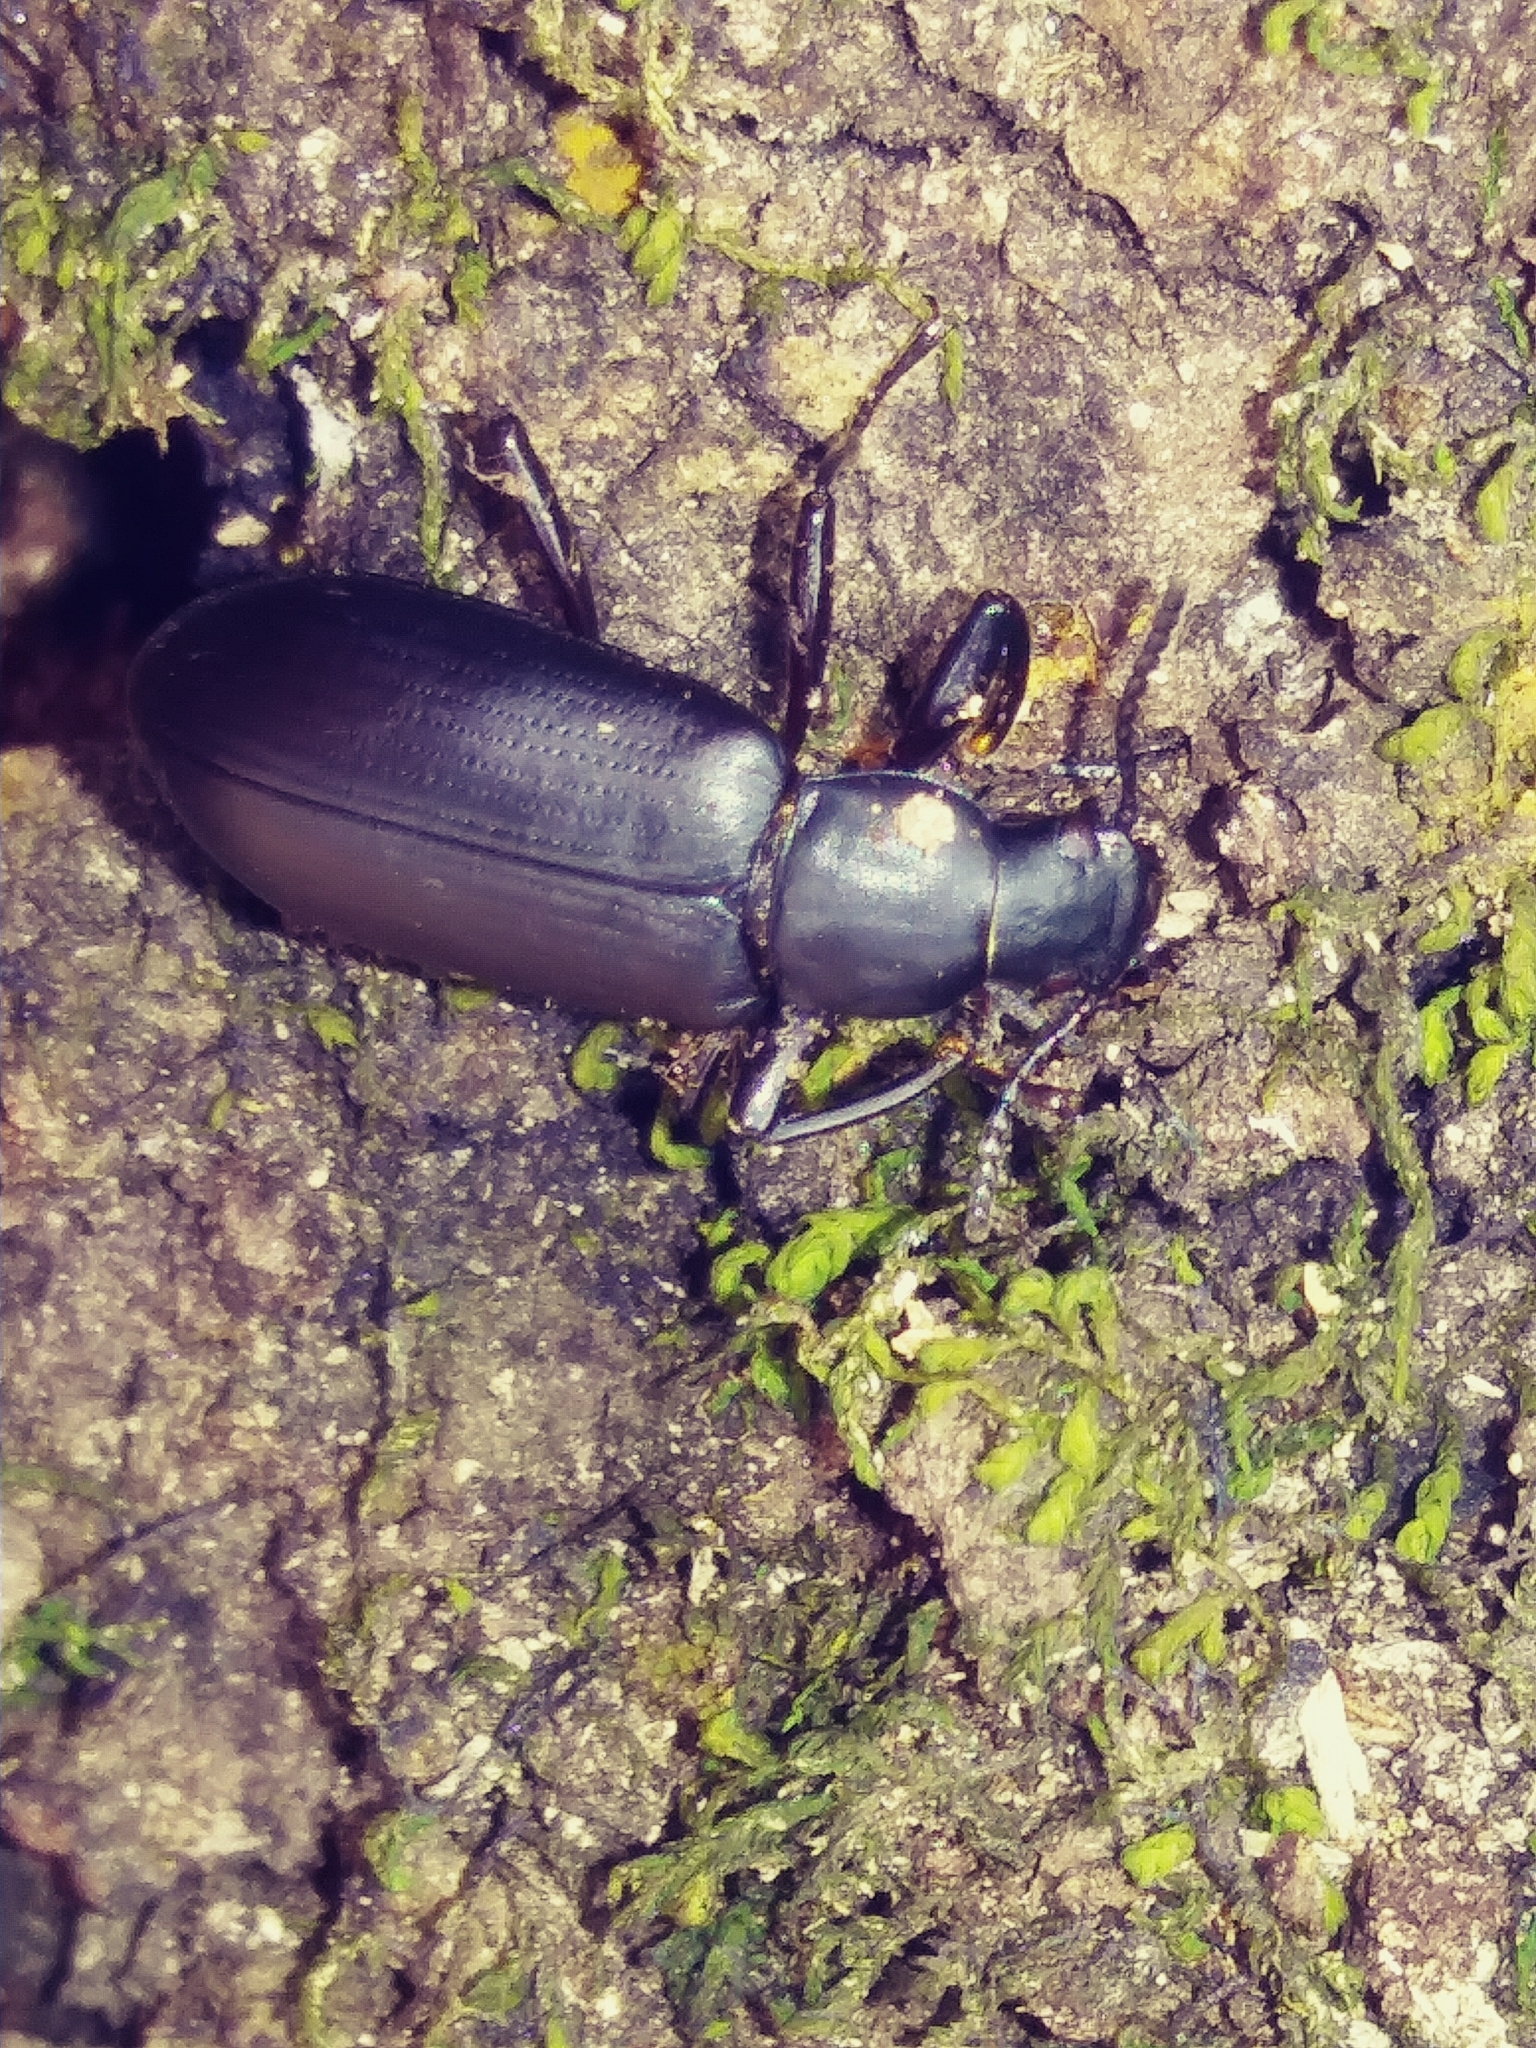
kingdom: Animalia
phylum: Arthropoda
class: Insecta
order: Coleoptera
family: Tenebrionidae
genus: Alobates
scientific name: Alobates
